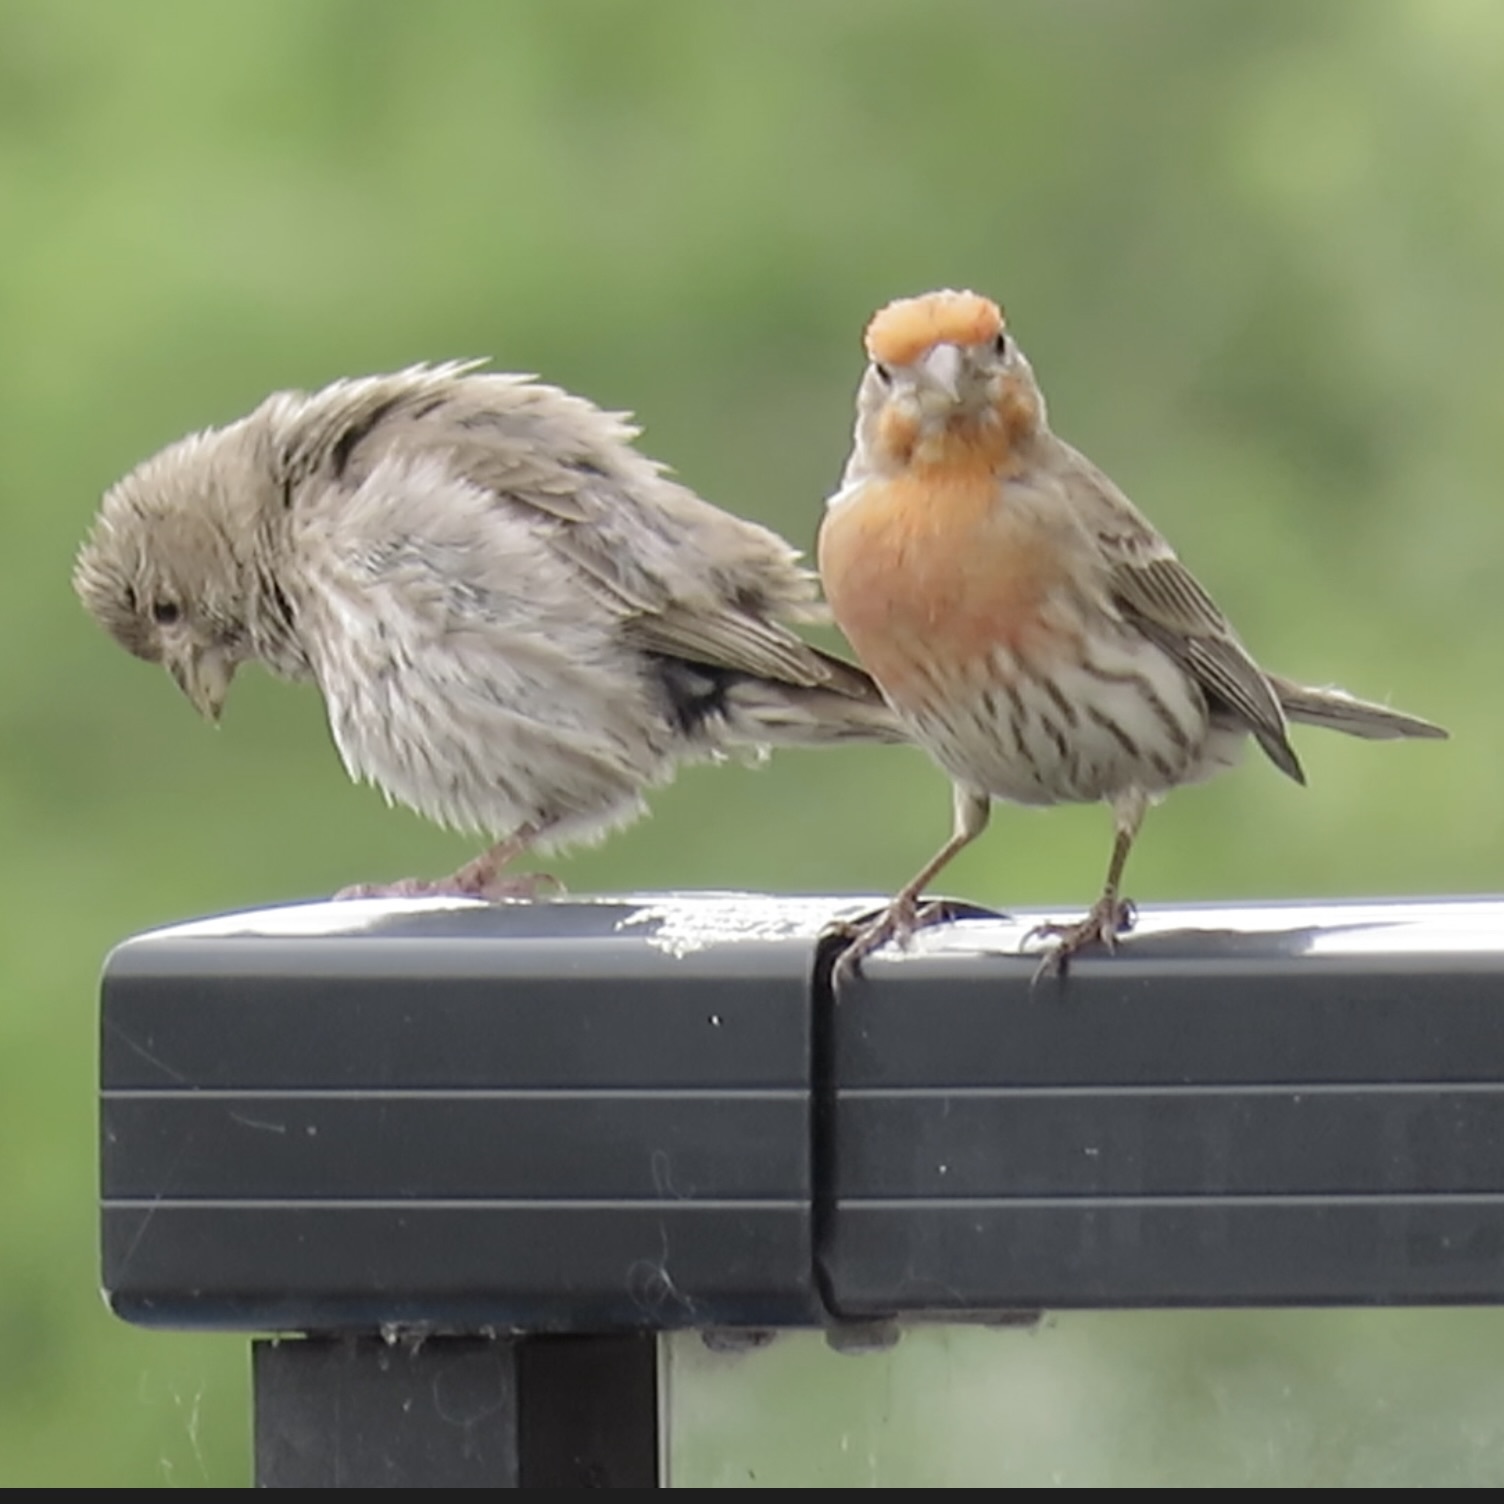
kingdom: Animalia
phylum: Chordata
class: Aves
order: Passeriformes
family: Fringillidae
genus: Haemorhous
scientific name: Haemorhous mexicanus
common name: House finch
